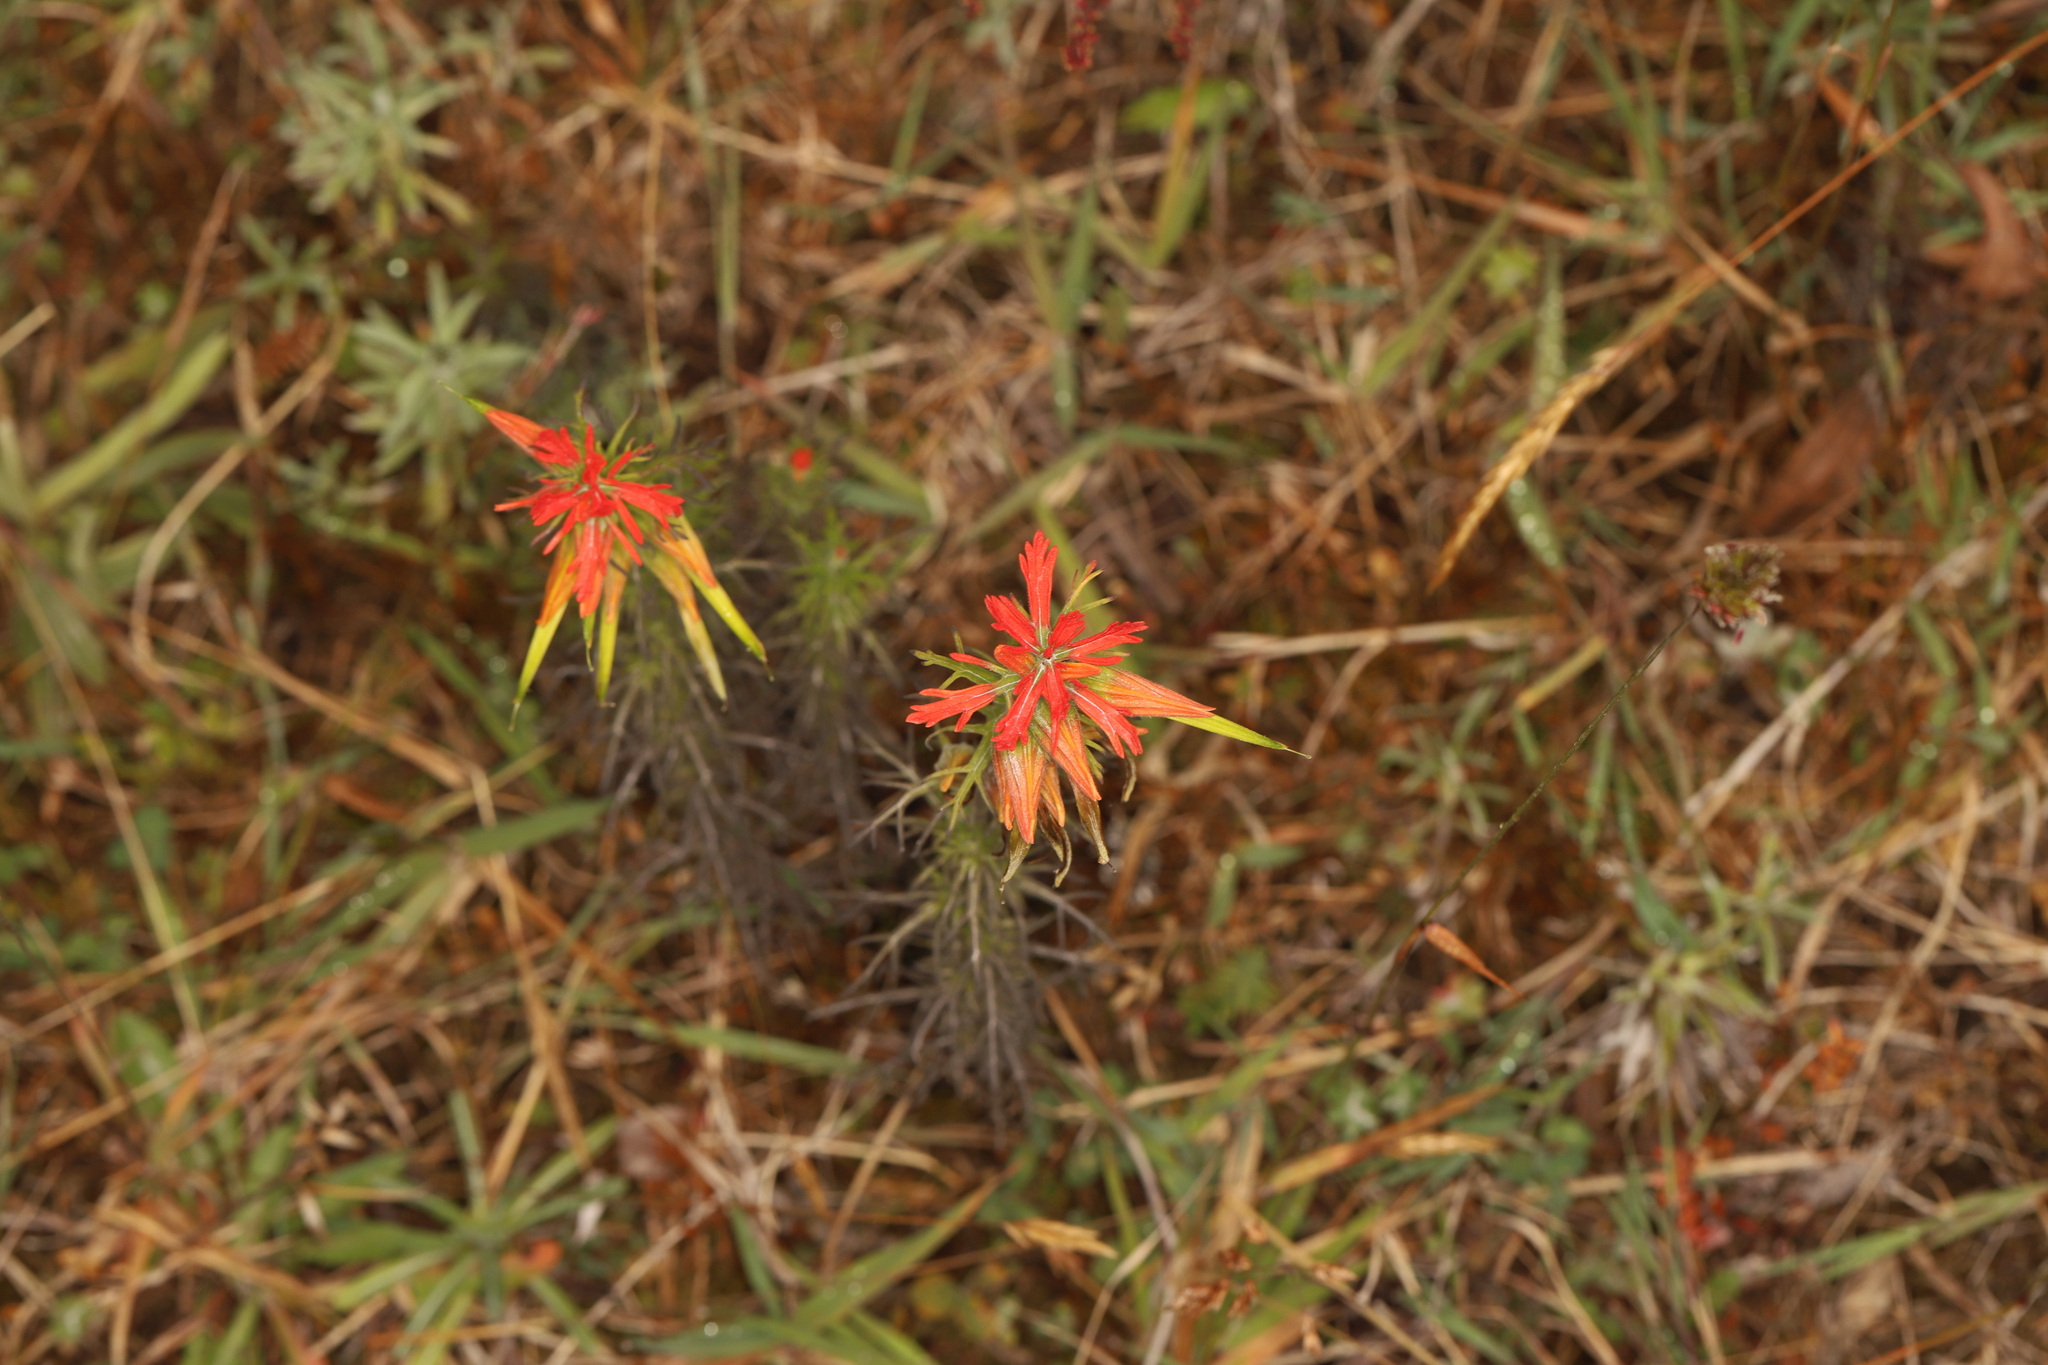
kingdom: Plantae
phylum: Tracheophyta
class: Magnoliopsida
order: Lamiales
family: Orobanchaceae
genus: Castilleja
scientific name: Castilleja fissifolia
